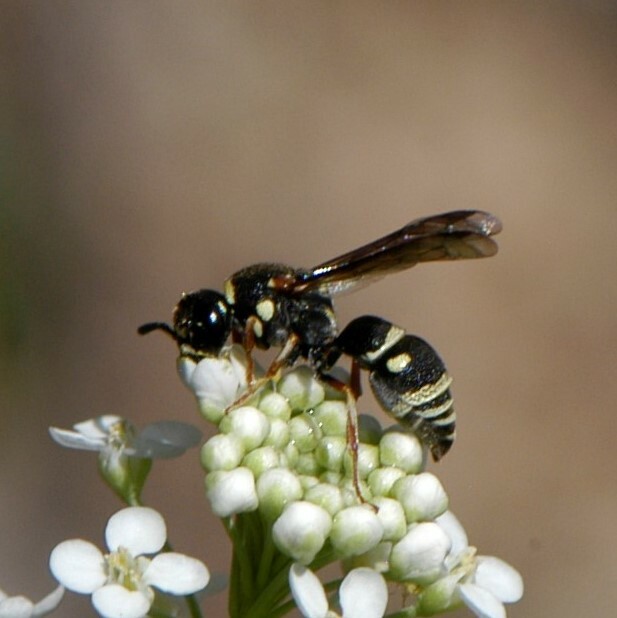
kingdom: Animalia
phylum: Arthropoda
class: Insecta
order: Hymenoptera
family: Eumenidae
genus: Stenodynerus
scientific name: Stenodynerus
